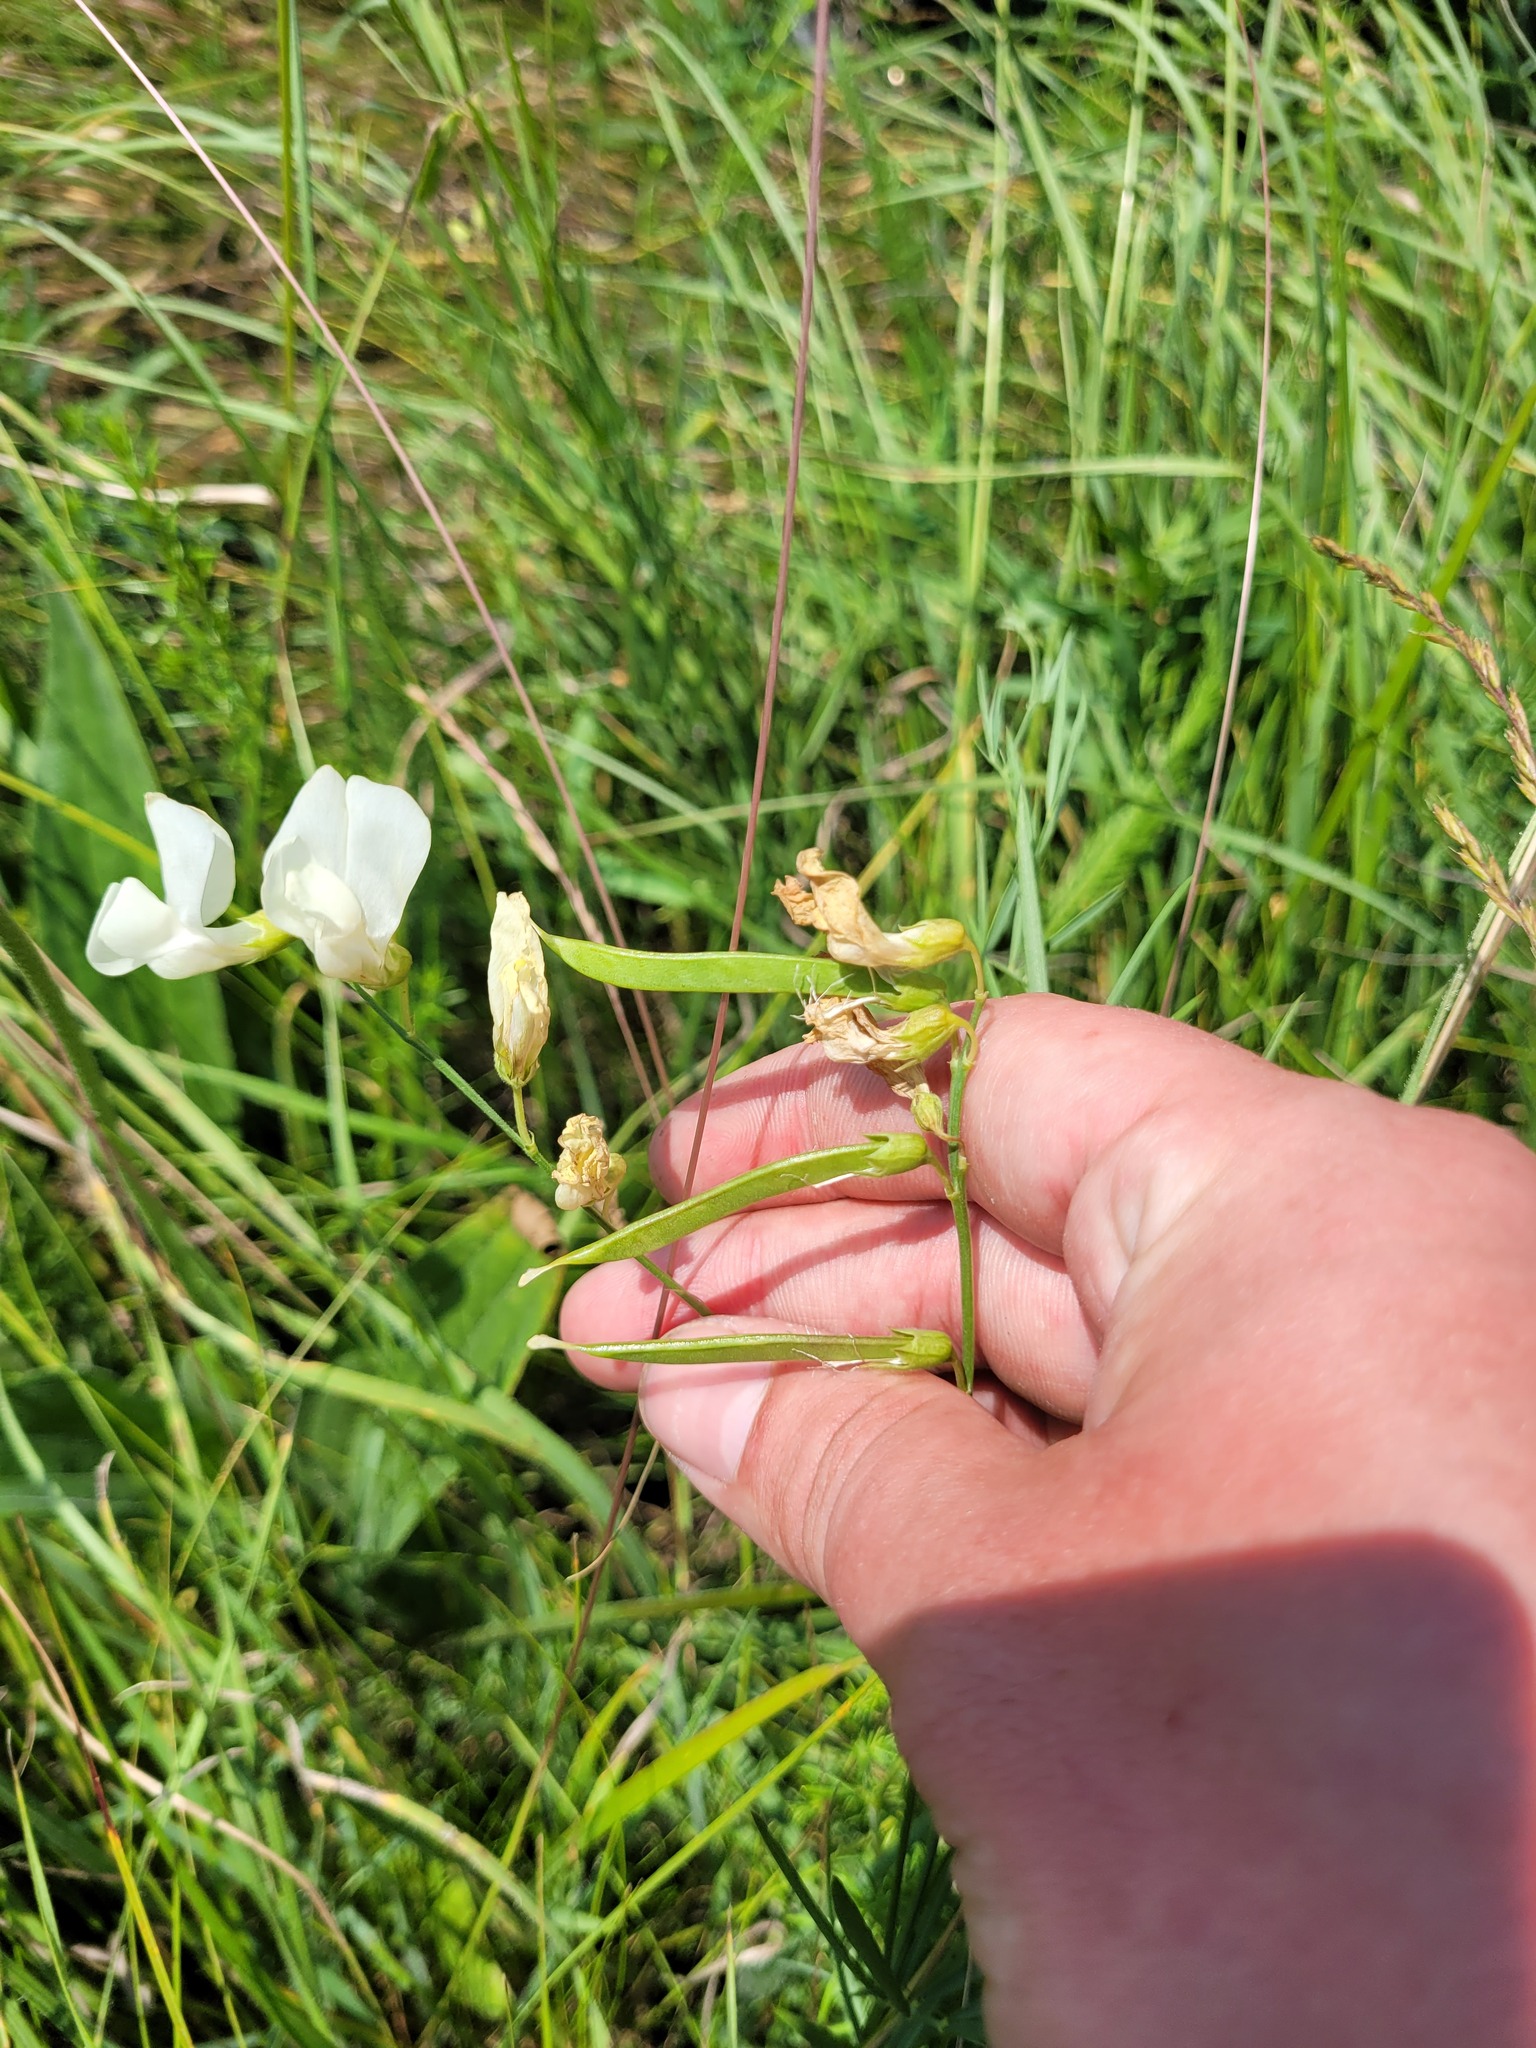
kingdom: Plantae
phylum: Tracheophyta
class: Magnoliopsida
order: Fabales
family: Fabaceae
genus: Lathyrus
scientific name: Lathyrus pannonicus
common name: Pea
